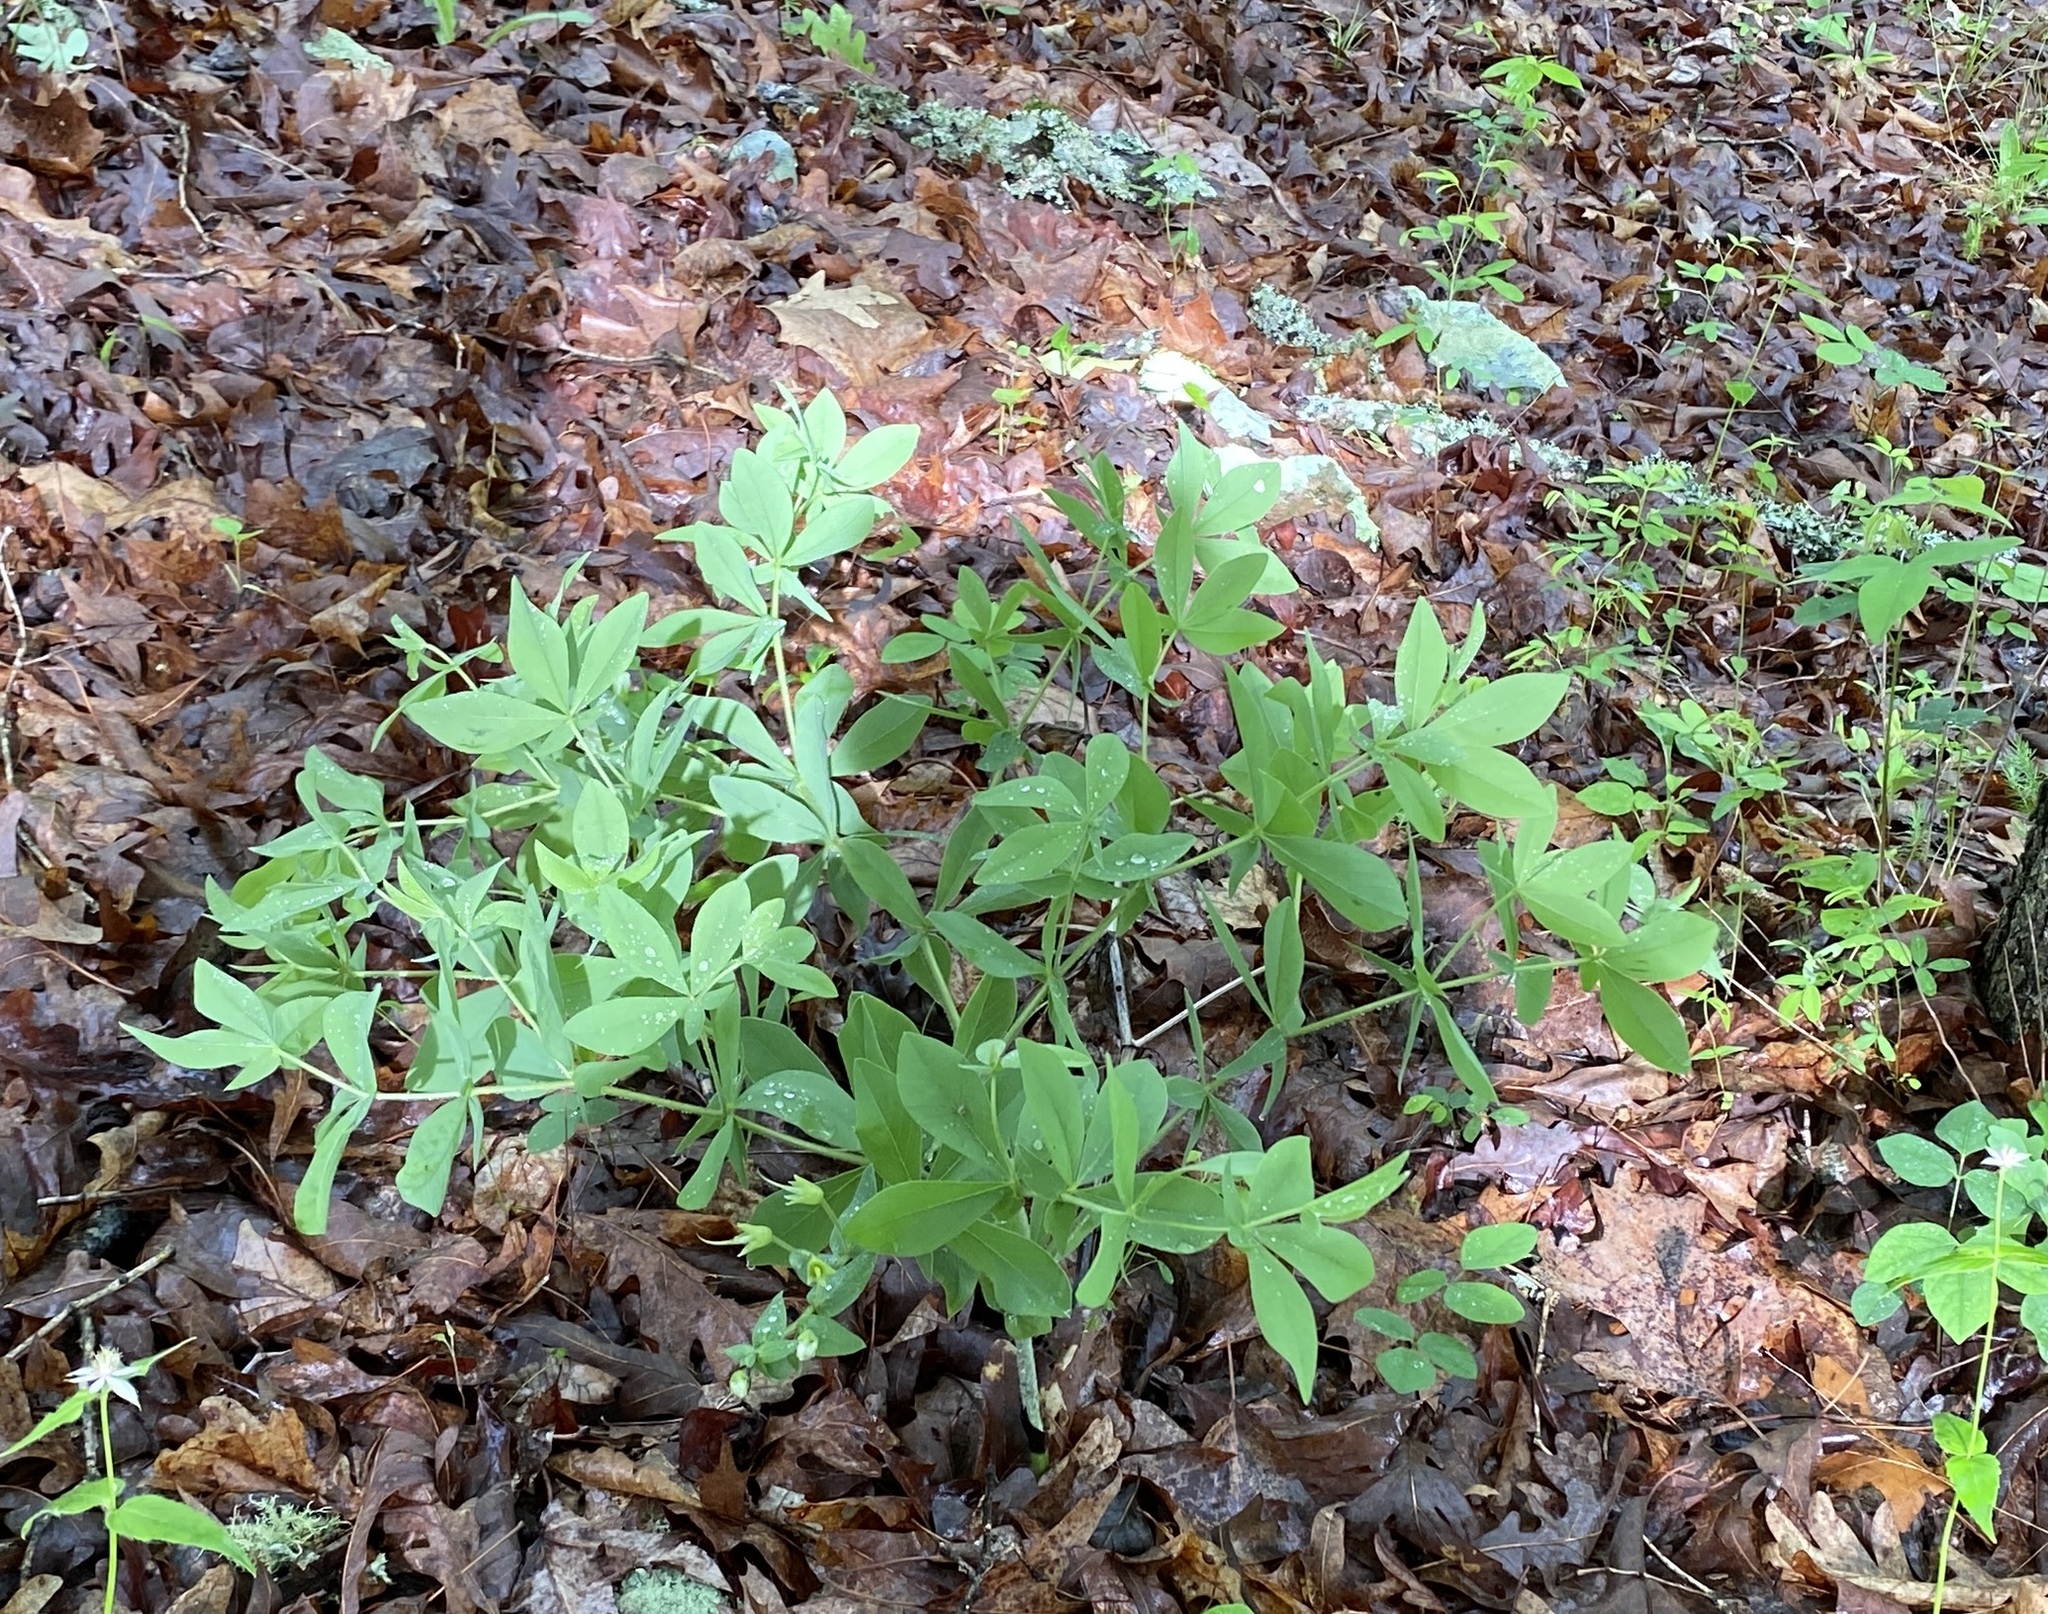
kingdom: Plantae
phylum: Tracheophyta
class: Magnoliopsida
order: Fabales
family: Fabaceae
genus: Baptisia
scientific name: Baptisia bracteata
